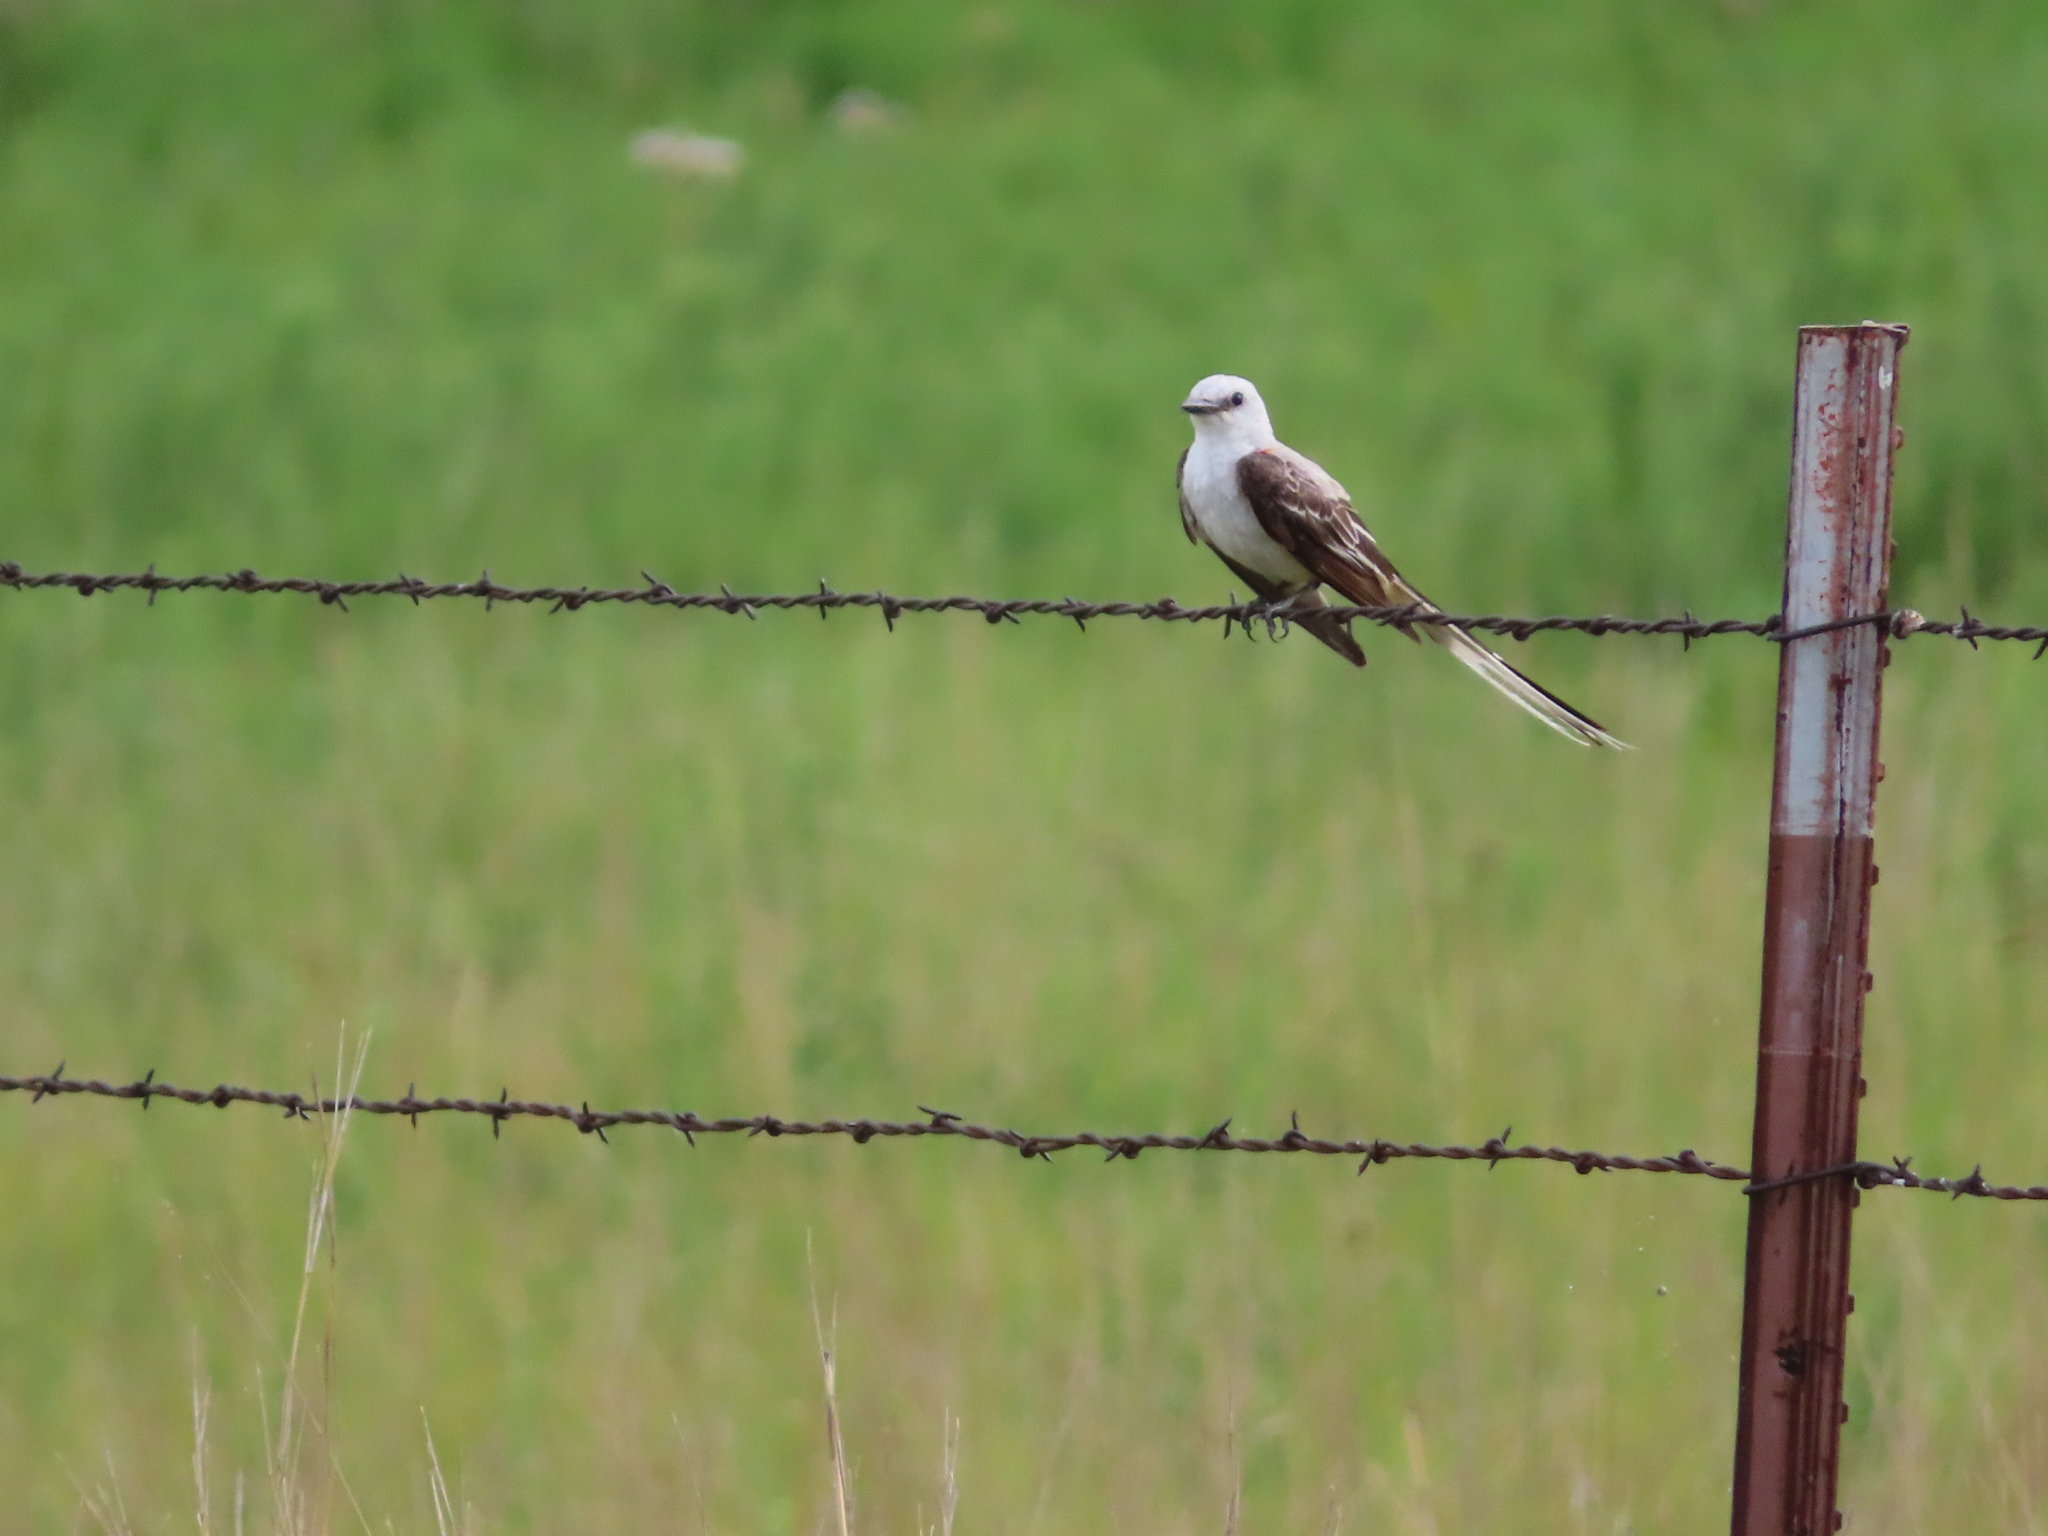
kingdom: Animalia
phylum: Chordata
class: Aves
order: Passeriformes
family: Tyrannidae
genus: Tyrannus
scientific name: Tyrannus forficatus
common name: Scissor-tailed flycatcher
